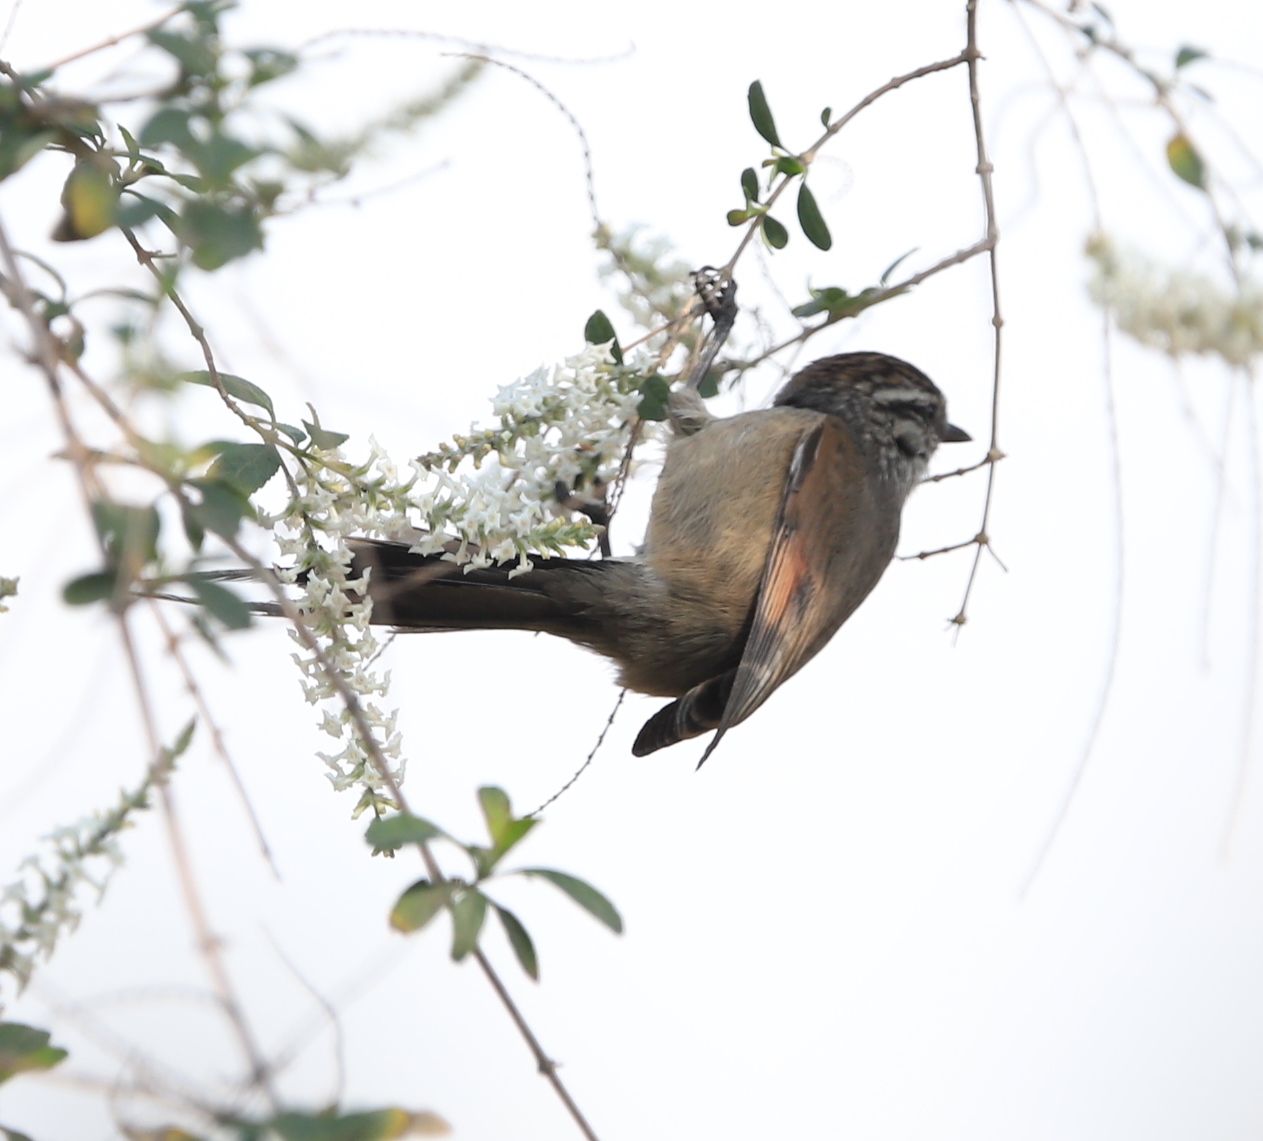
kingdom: Animalia
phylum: Chordata
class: Aves
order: Passeriformes
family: Furnariidae
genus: Leptasthenura
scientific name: Leptasthenura aegithaloides
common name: Plain-mantled tit-spinetail
